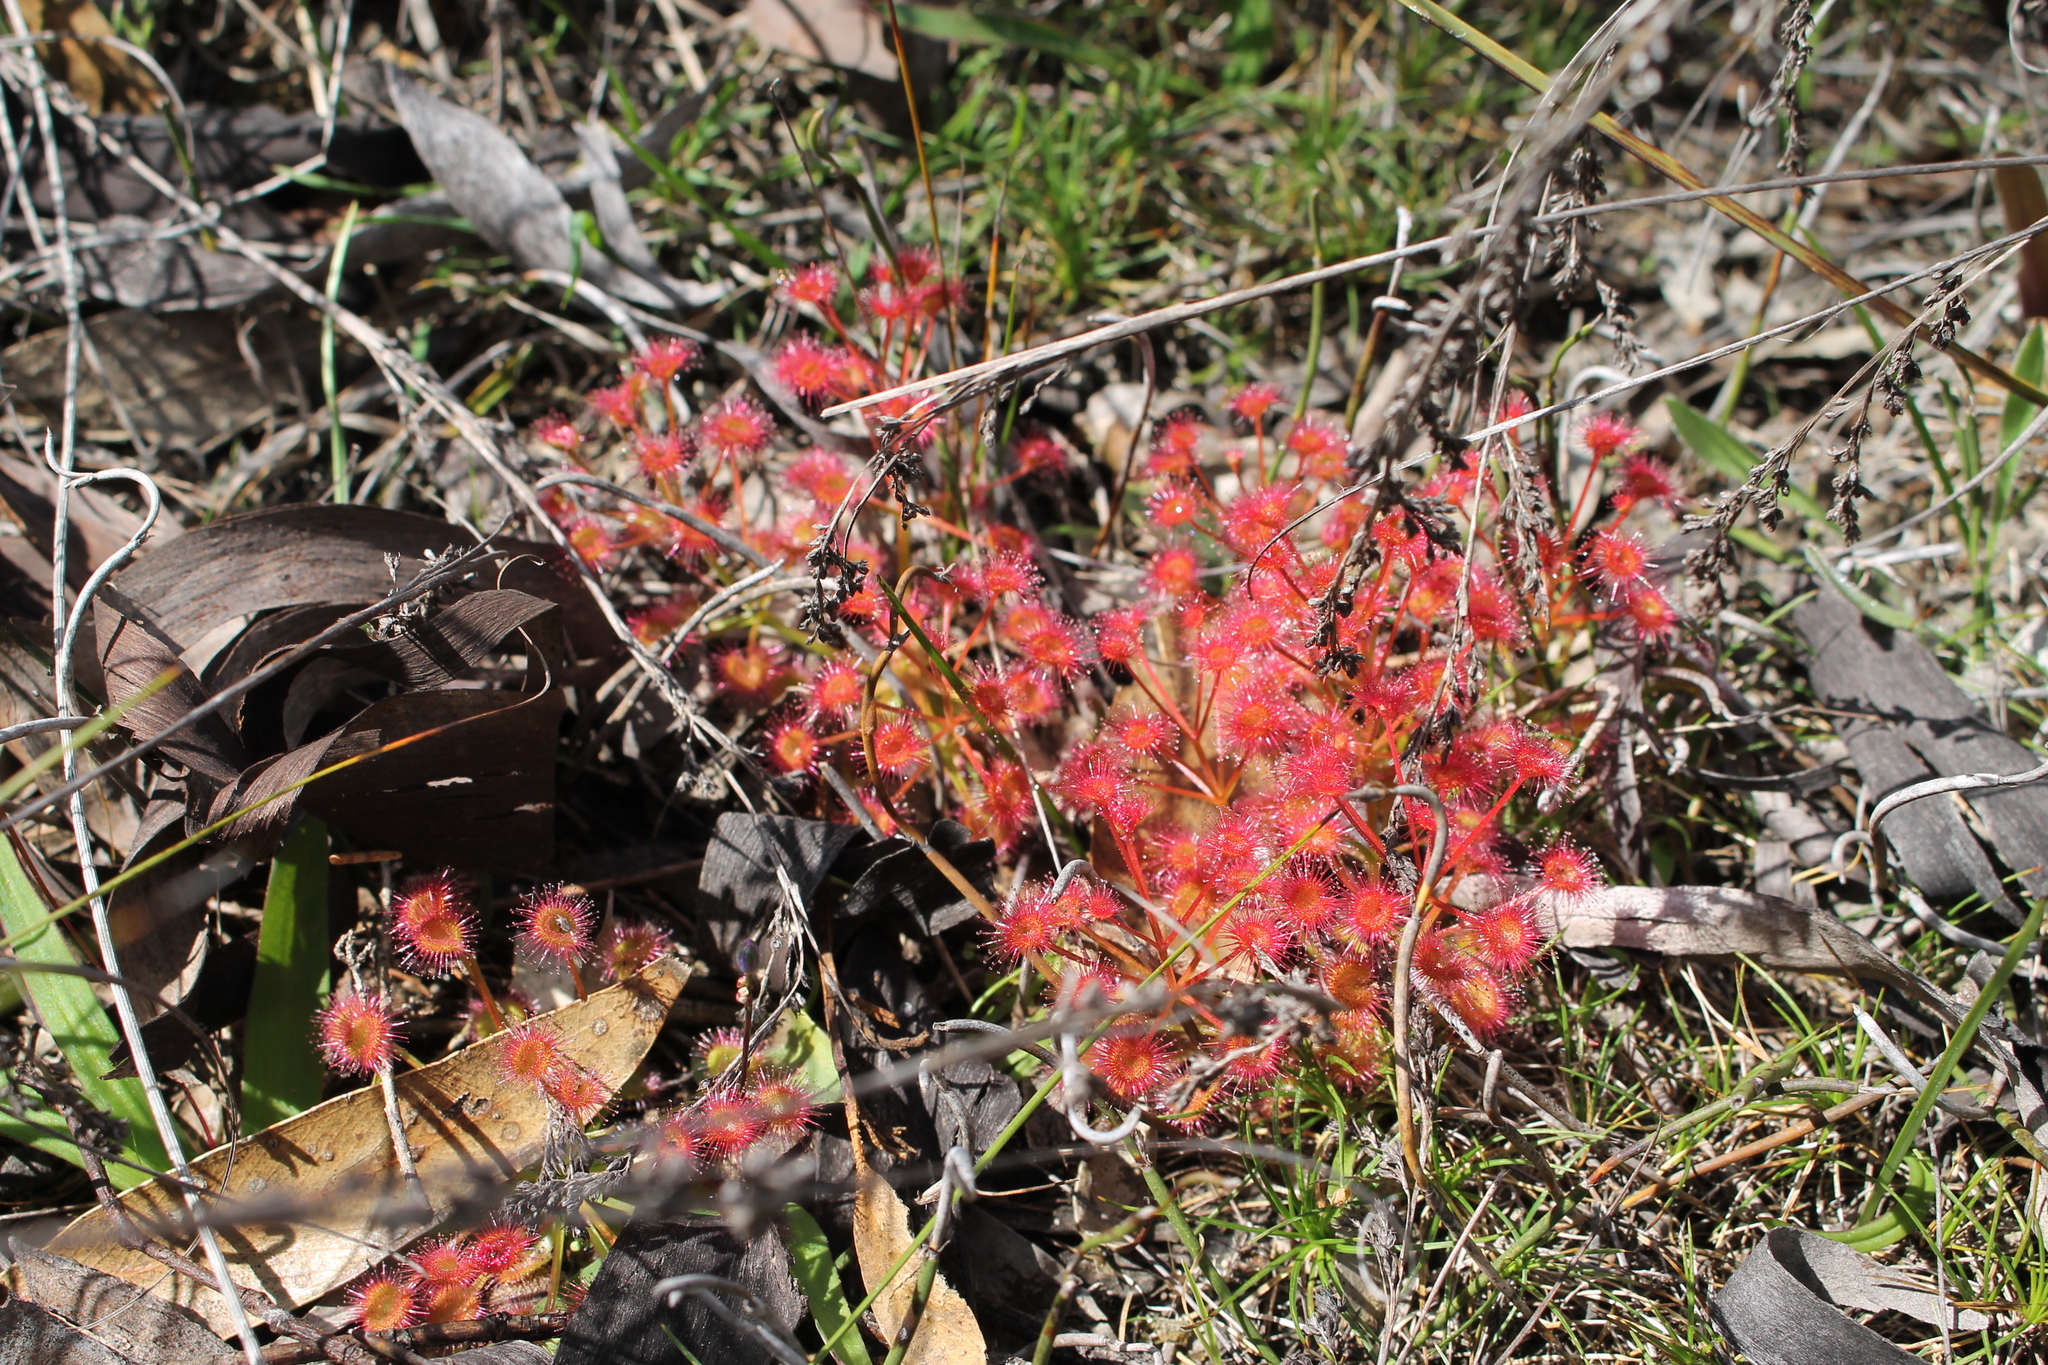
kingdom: Plantae
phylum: Tracheophyta
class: Magnoliopsida
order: Caryophyllales
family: Droseraceae
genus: Drosera
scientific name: Drosera stolonifera
